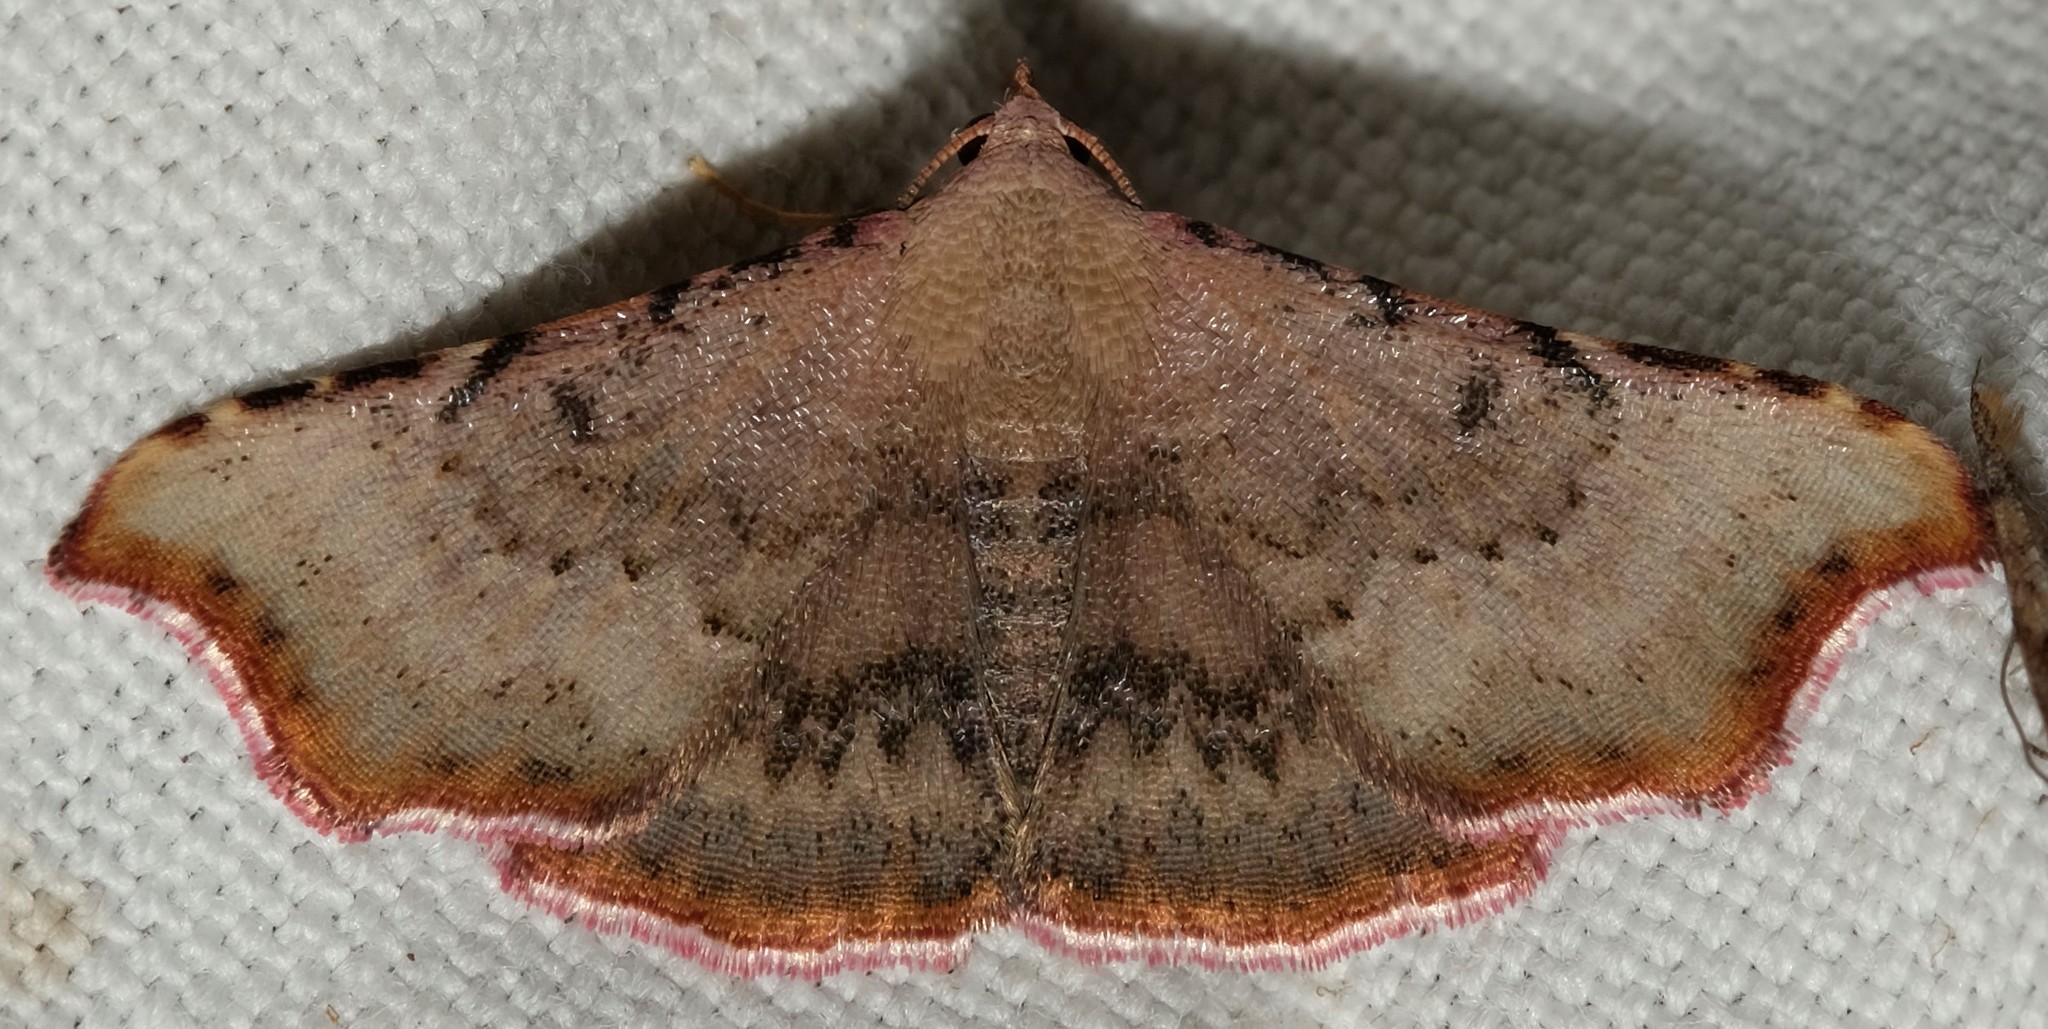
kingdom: Animalia
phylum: Arthropoda
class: Insecta
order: Lepidoptera
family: Erebidae
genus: Corgatha
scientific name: Corgatha dipyra
